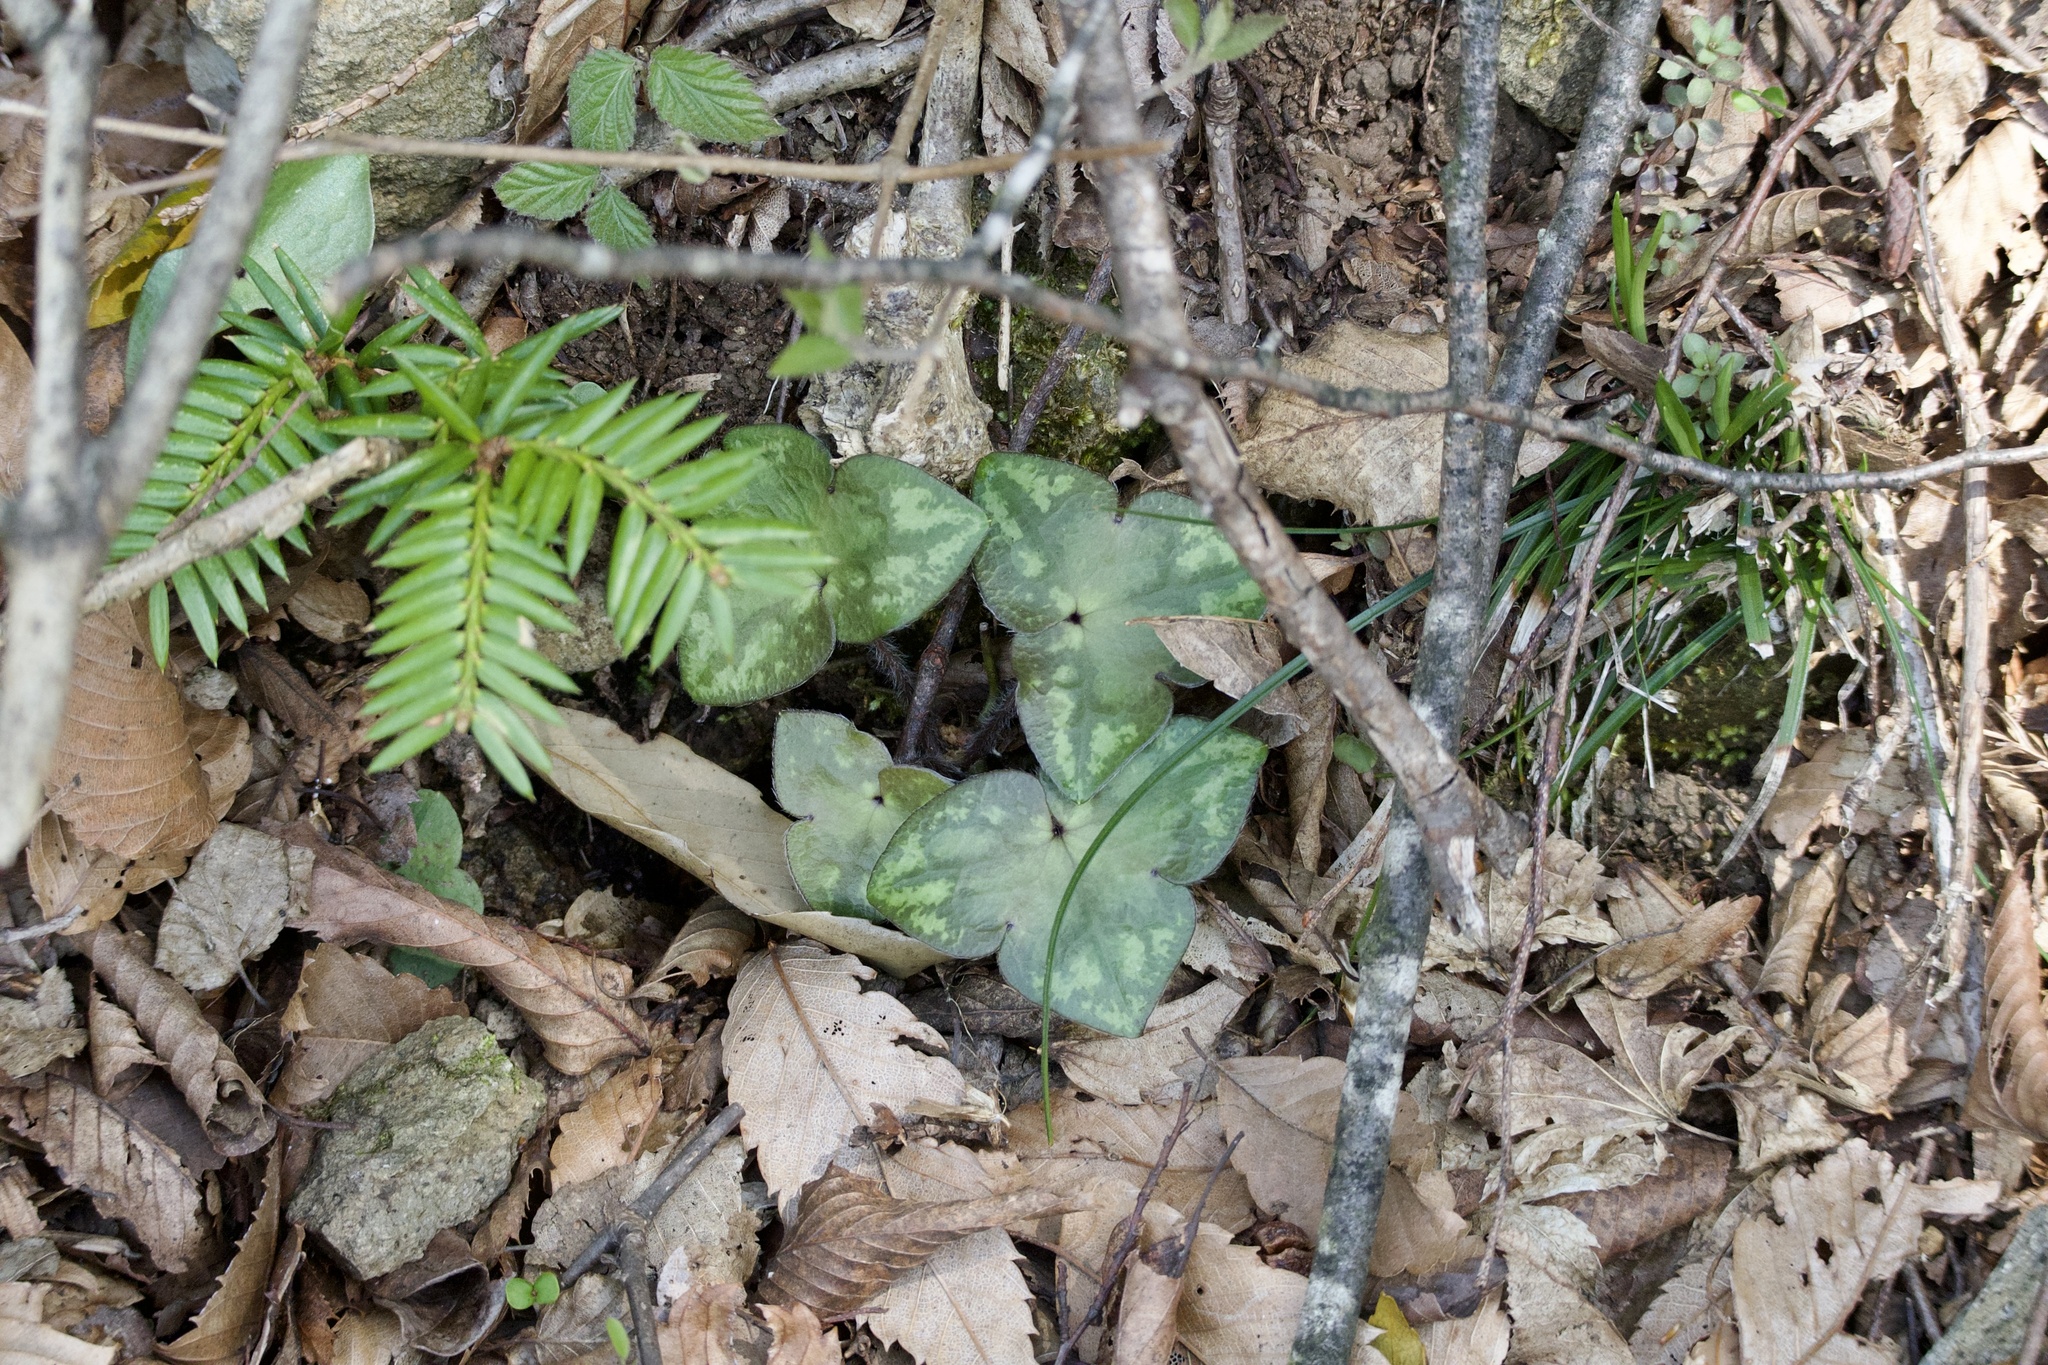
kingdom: Plantae
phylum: Tracheophyta
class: Magnoliopsida
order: Ranunculales
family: Ranunculaceae
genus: Hepatica
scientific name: Hepatica asiatica
